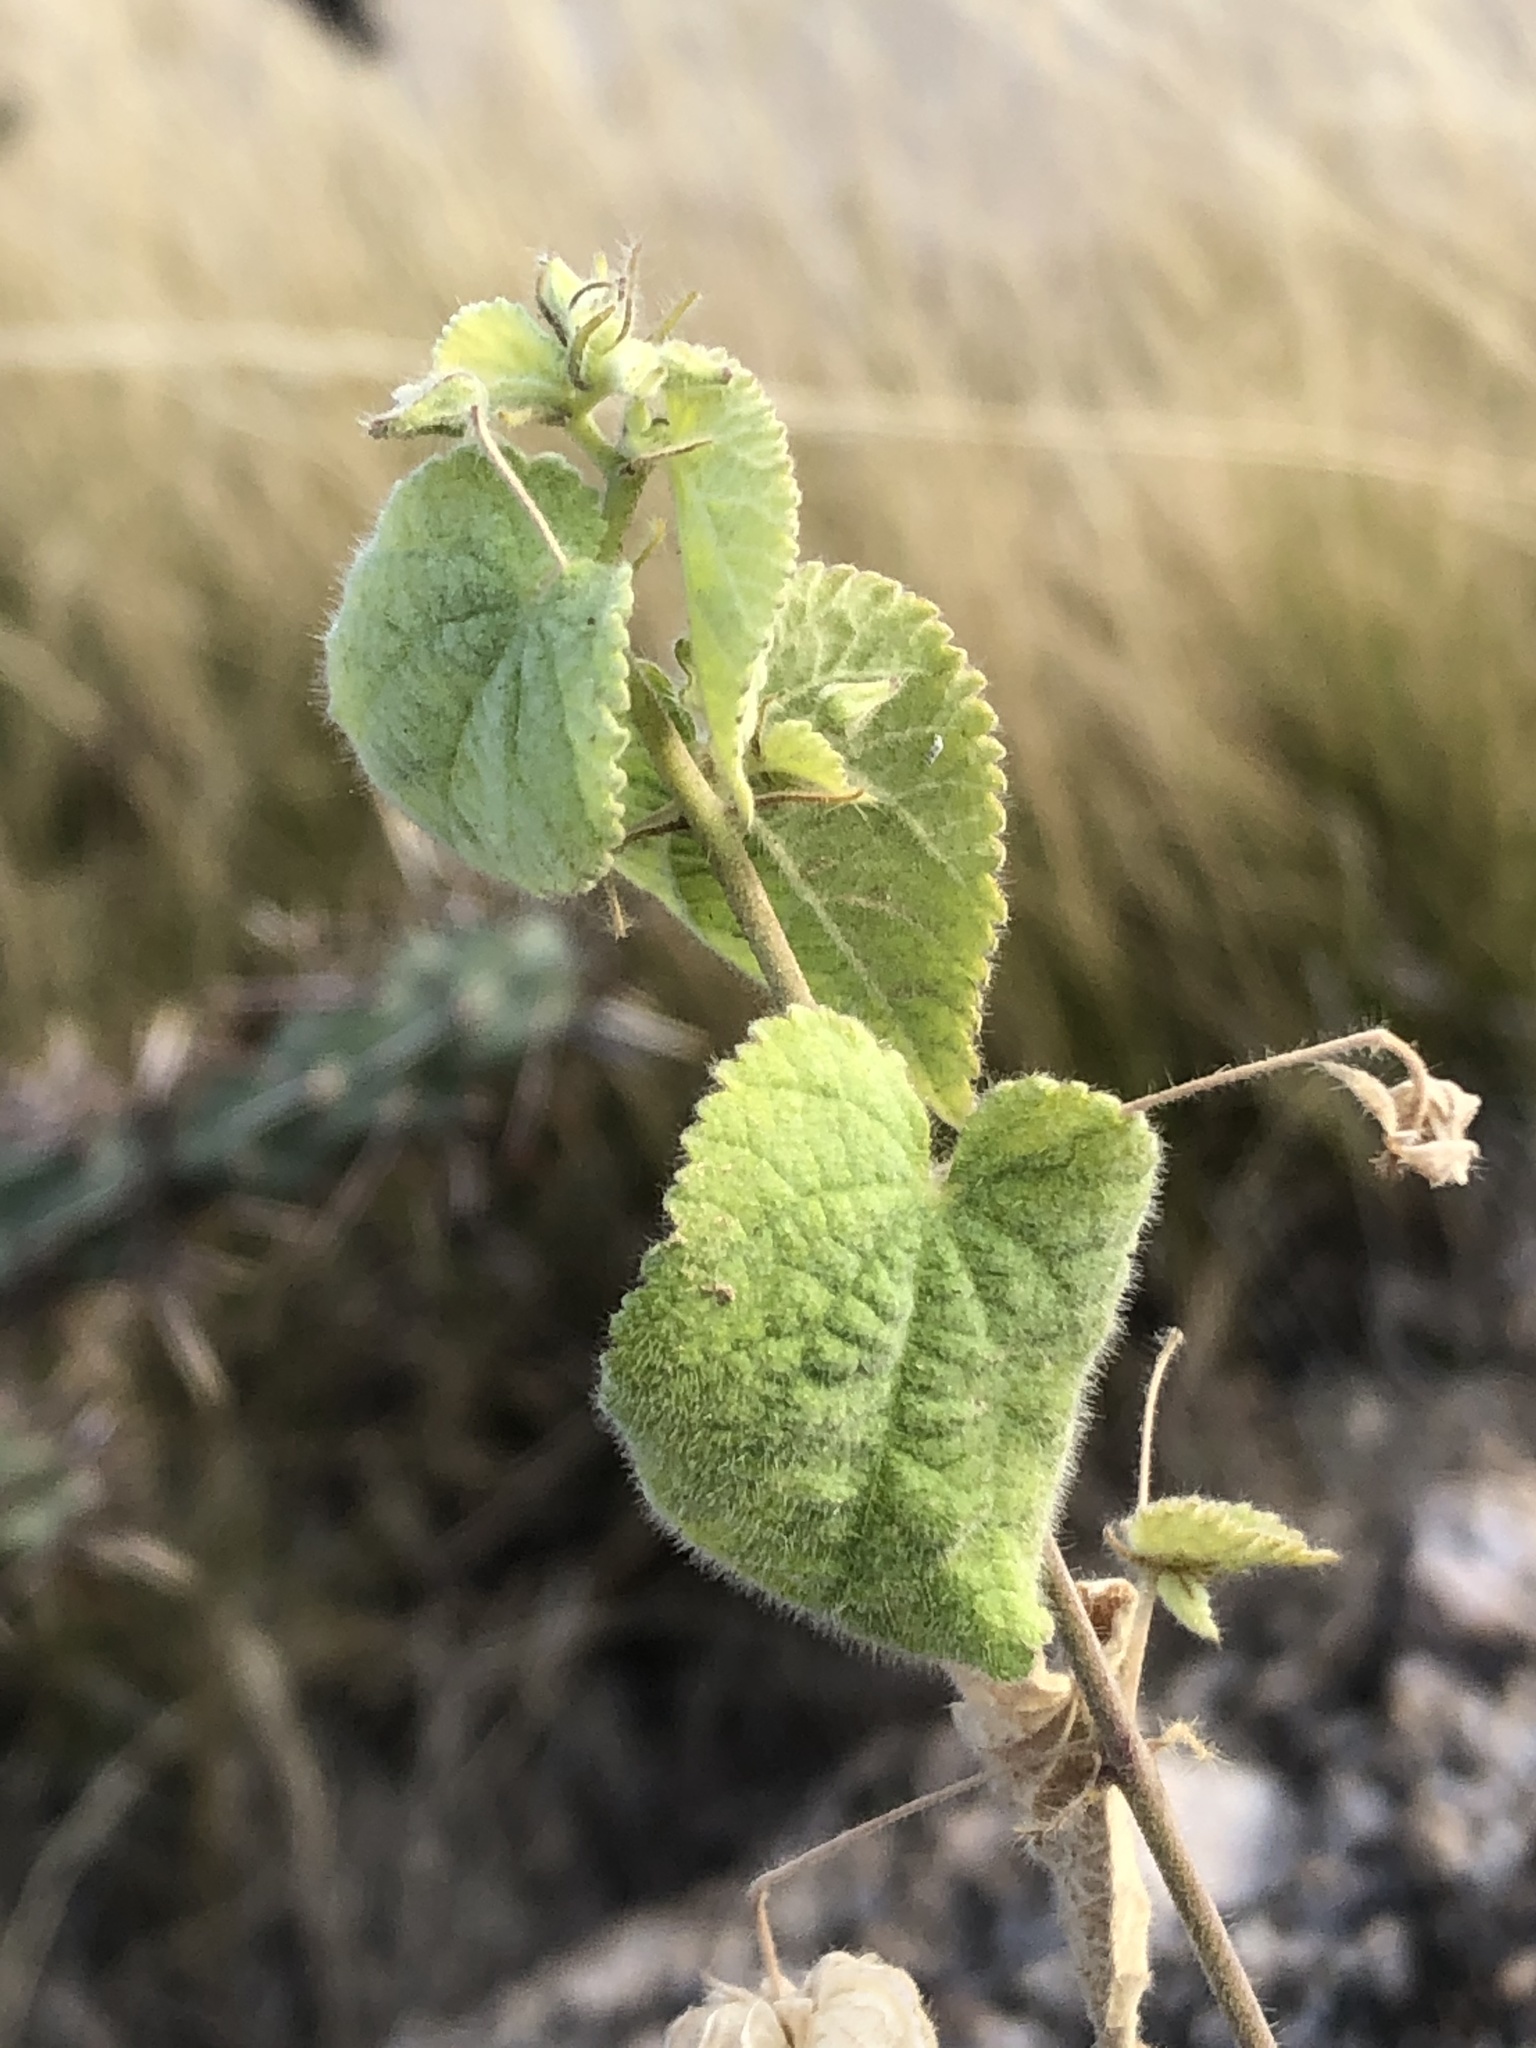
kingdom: Plantae
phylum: Tracheophyta
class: Magnoliopsida
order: Malvales
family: Malvaceae
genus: Herissantia
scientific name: Herissantia crispa
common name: Bladdermallow
